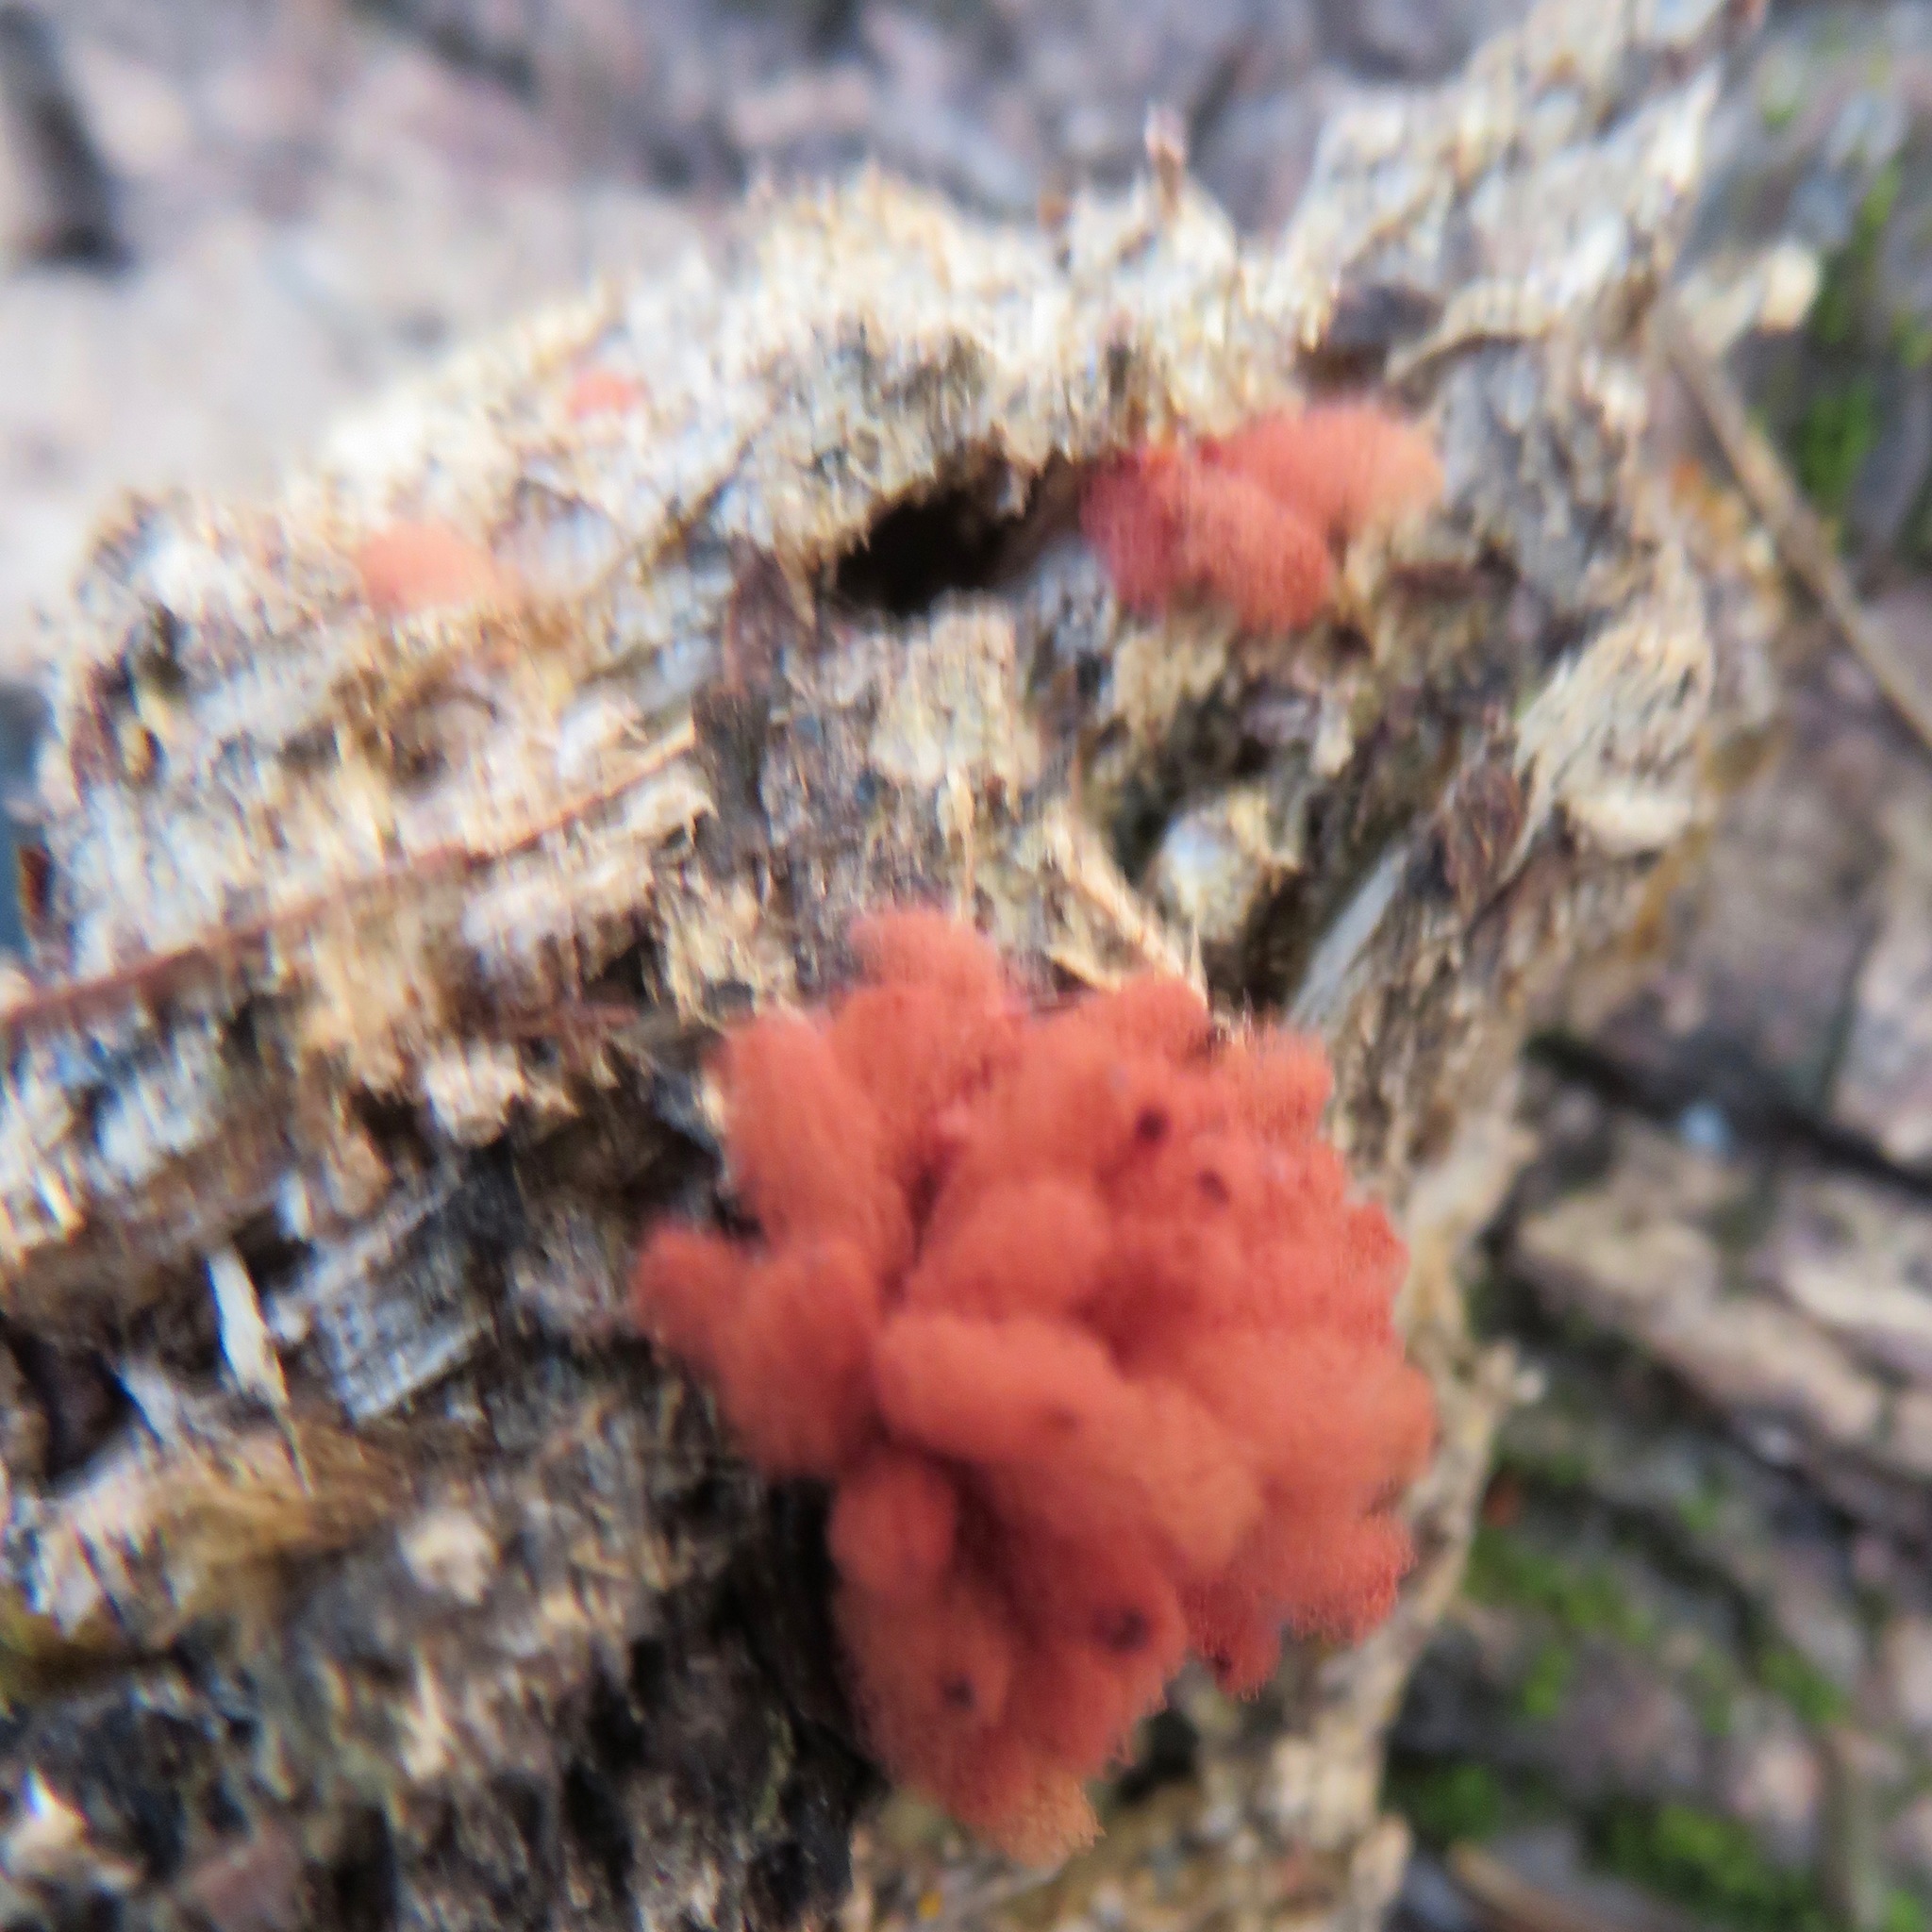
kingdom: Protozoa
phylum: Mycetozoa
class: Myxomycetes
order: Trichiales
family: Arcyriaceae
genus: Arcyria
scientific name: Arcyria denudata
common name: Carnival candy slime mold
